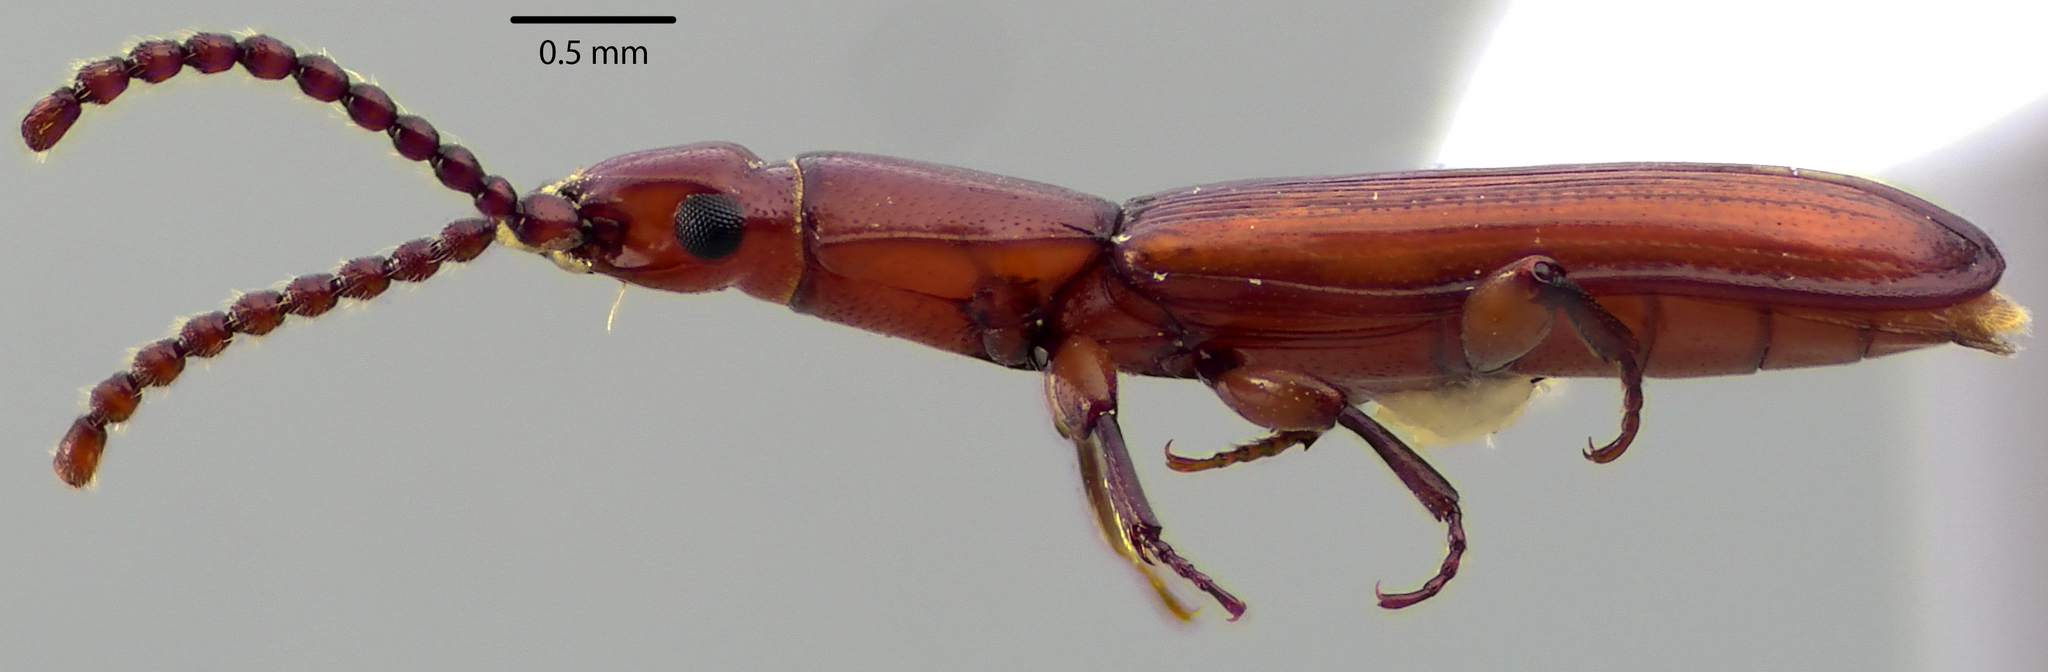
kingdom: Animalia
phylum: Arthropoda
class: Insecta
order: Coleoptera
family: Passandridae
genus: Catogenus
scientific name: Catogenus rufus
